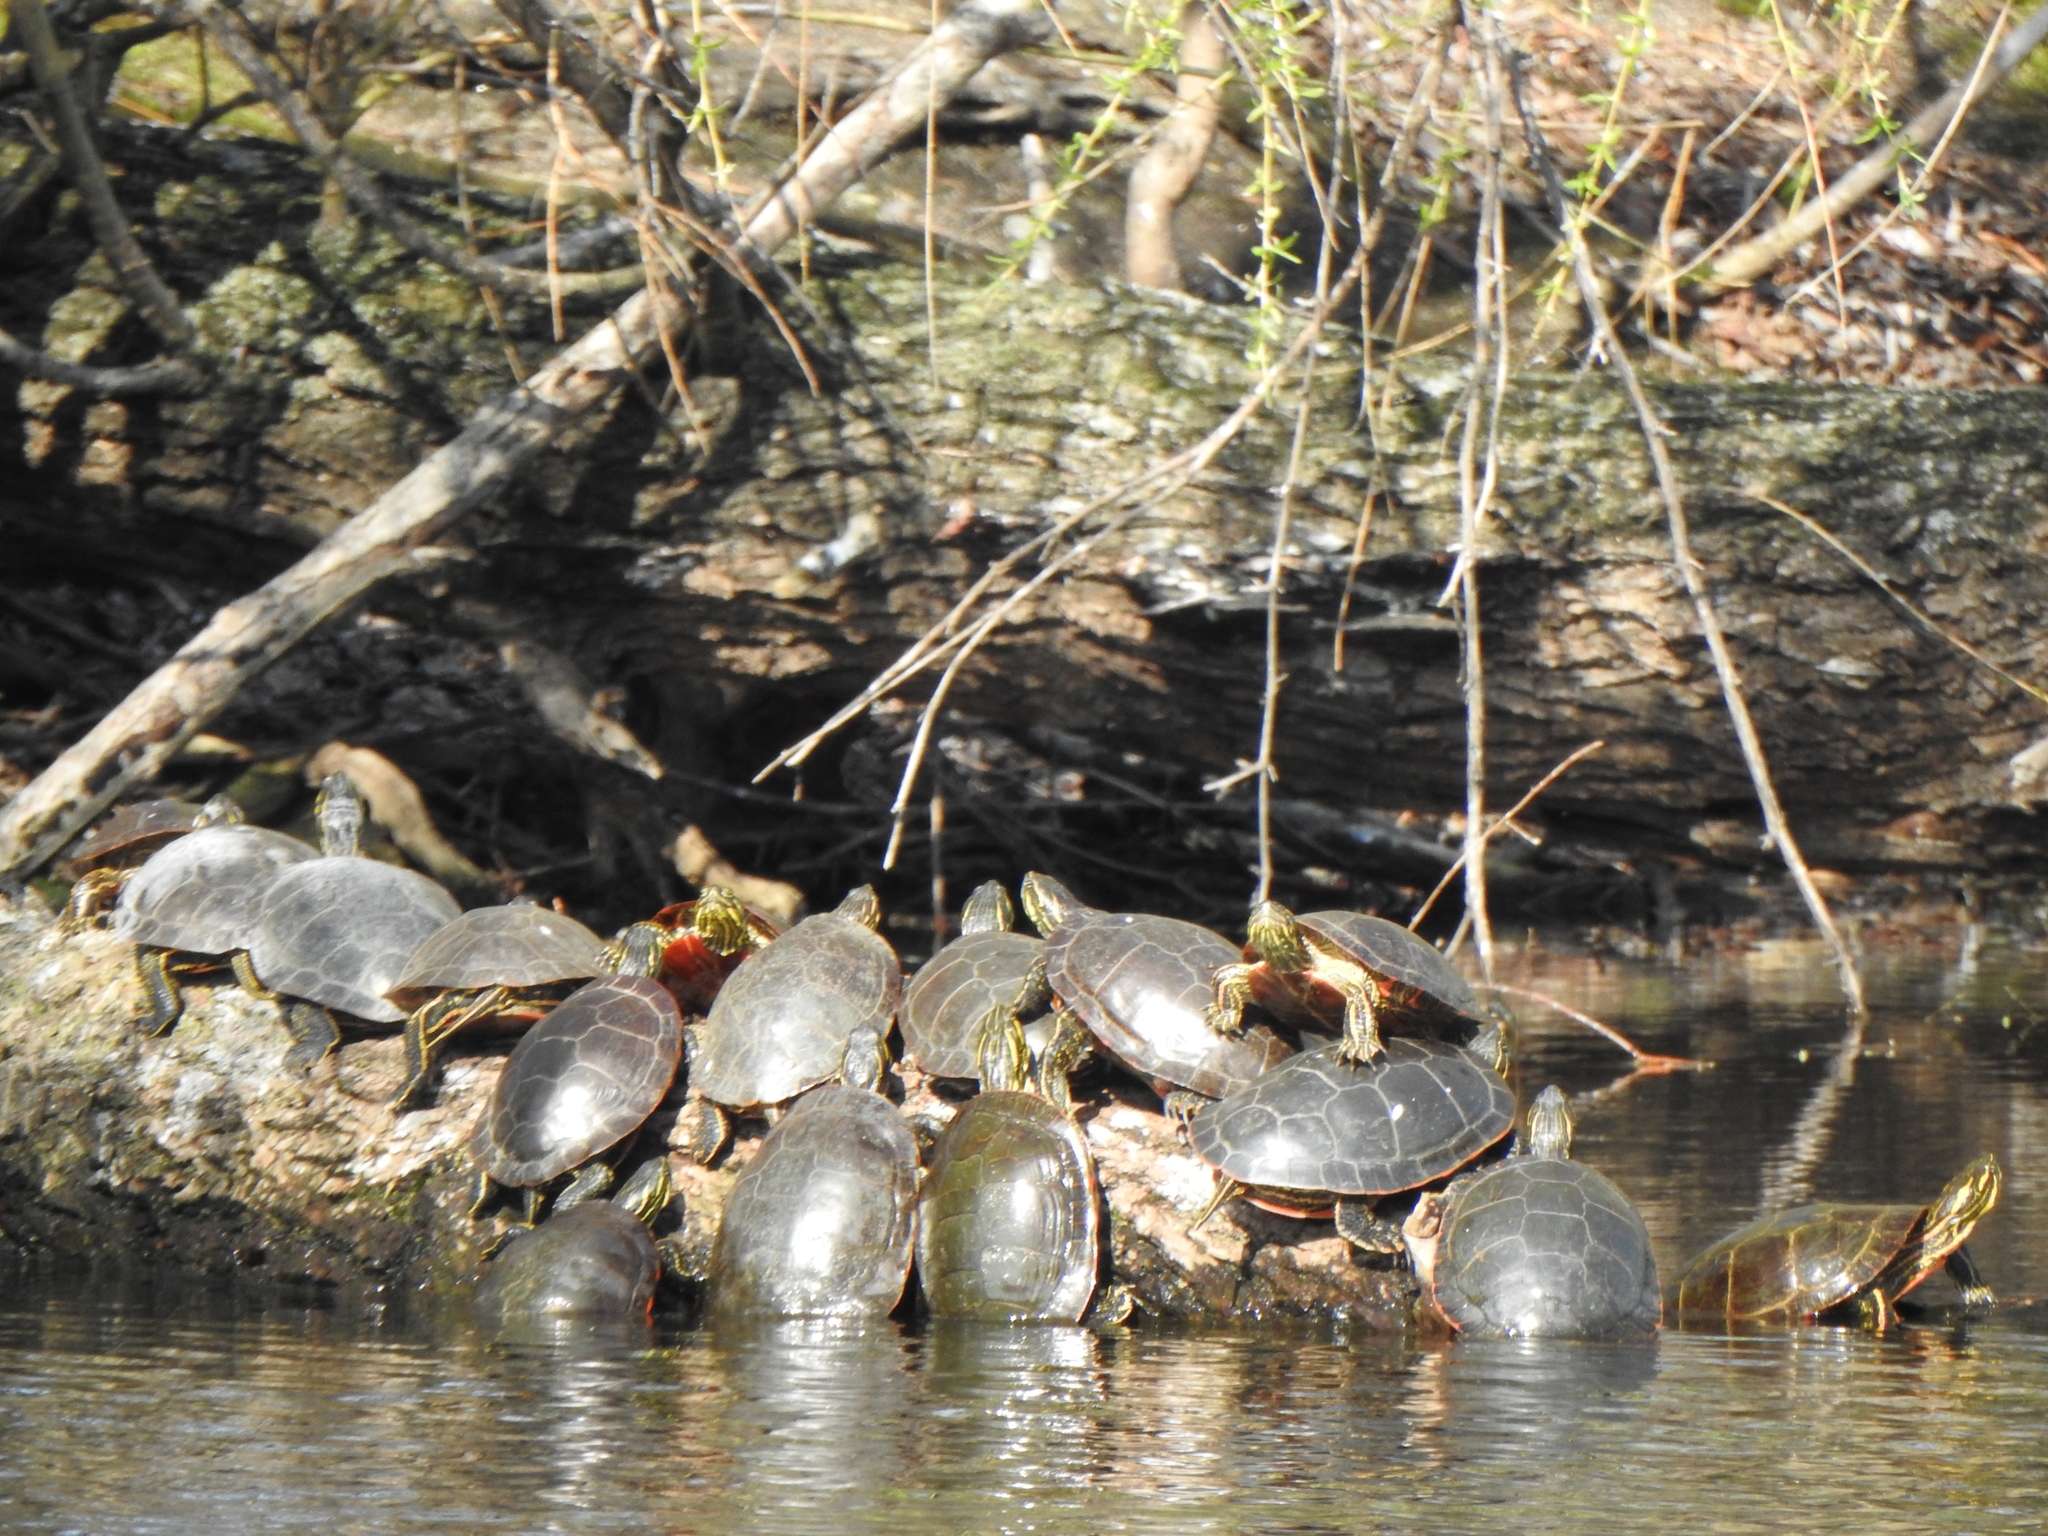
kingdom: Animalia
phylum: Chordata
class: Testudines
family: Emydidae
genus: Chrysemys
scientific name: Chrysemys picta
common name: Painted turtle
